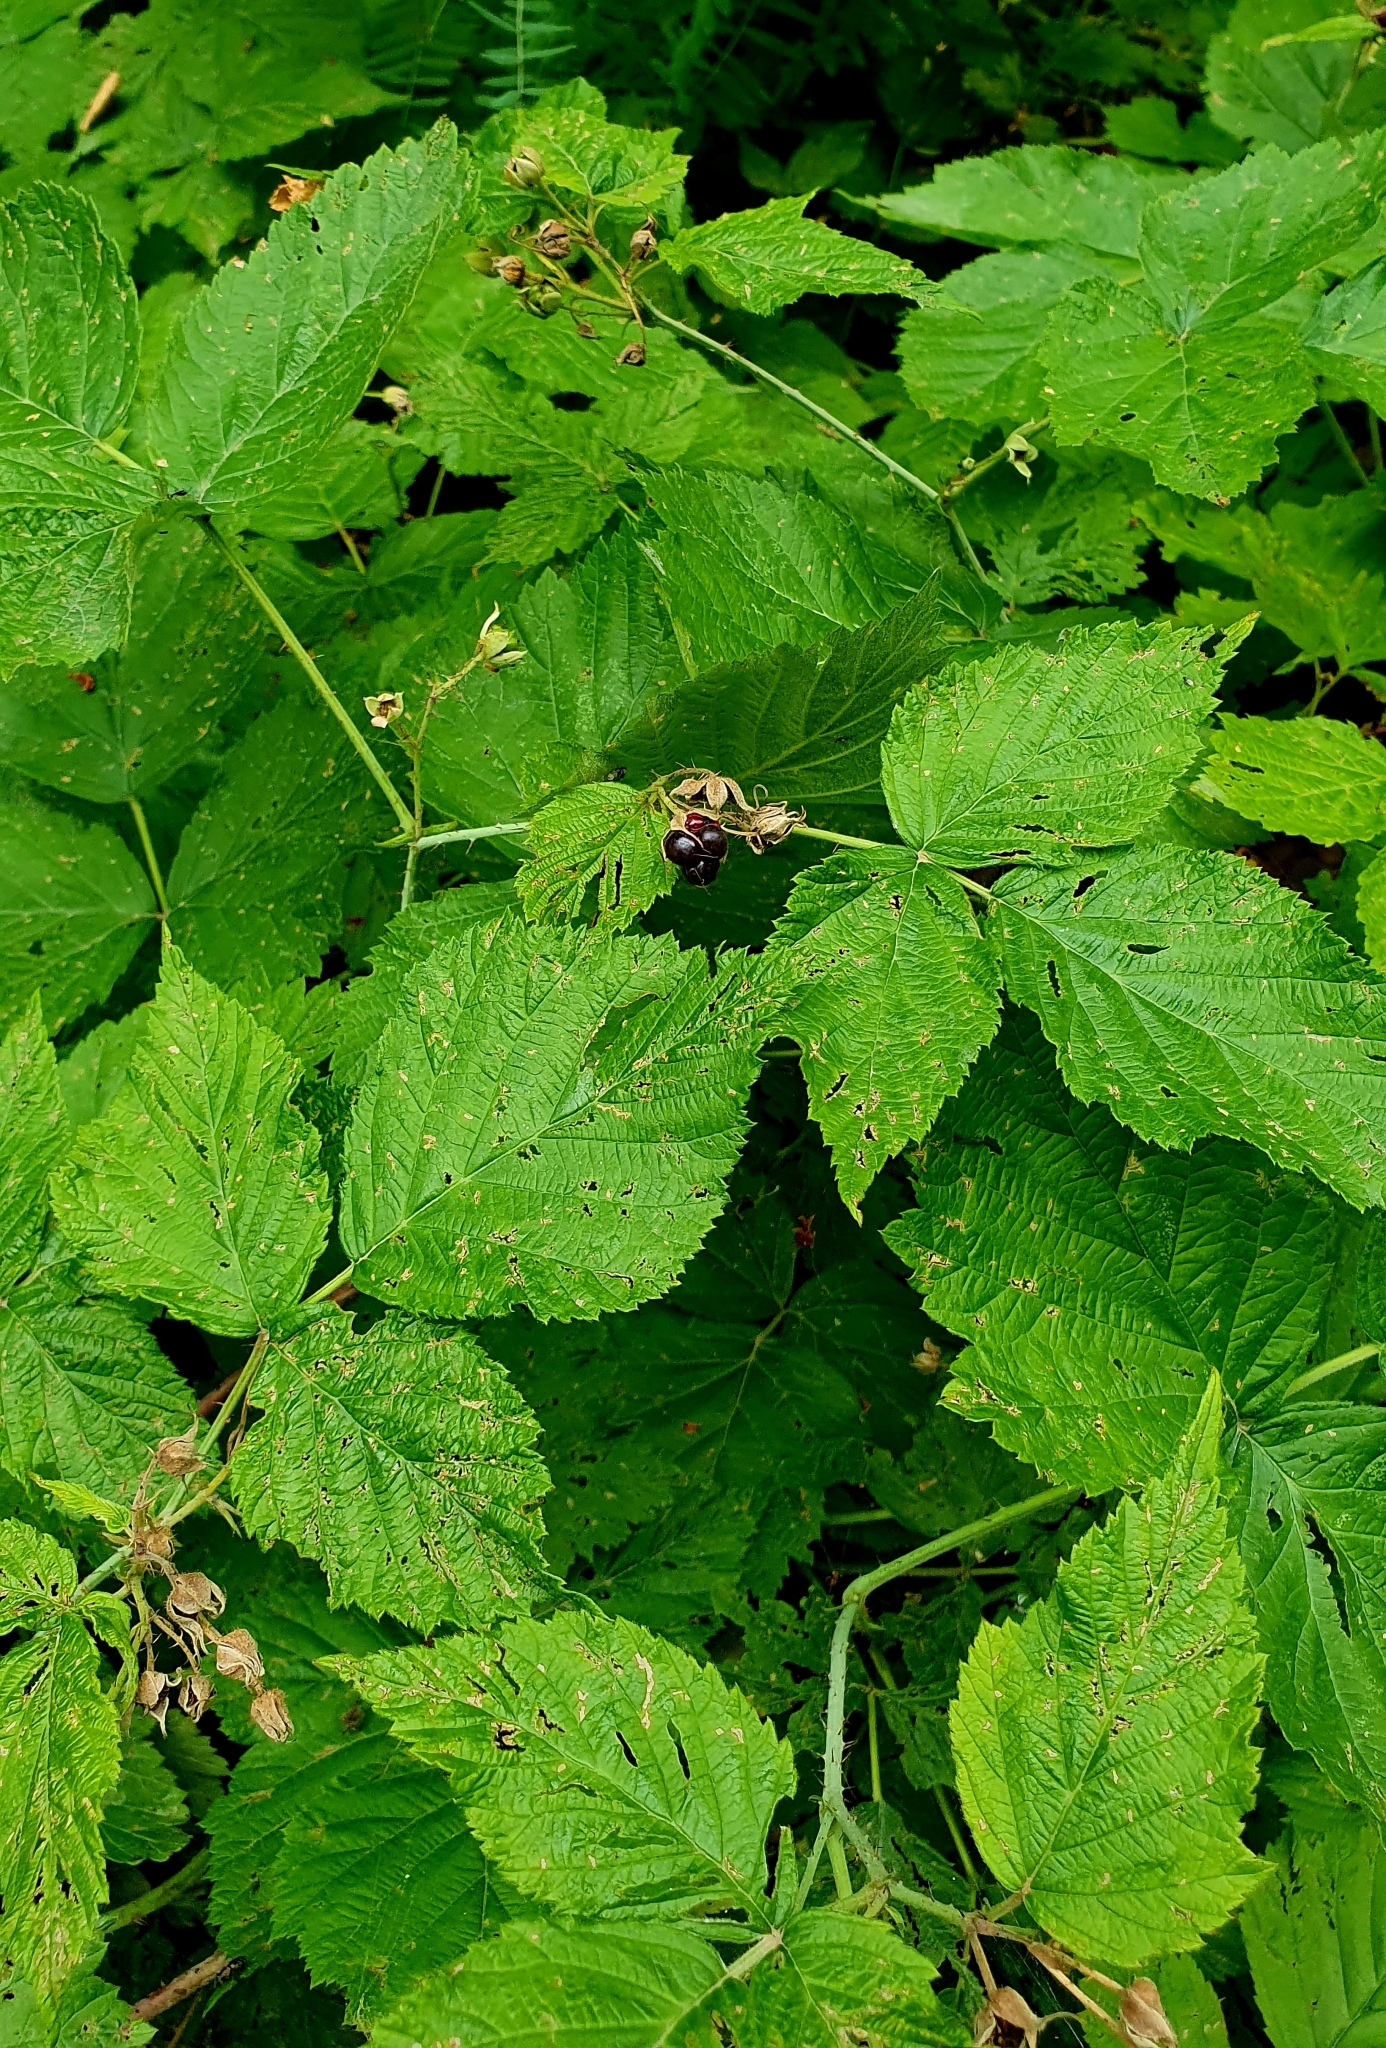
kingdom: Plantae
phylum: Tracheophyta
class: Magnoliopsida
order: Rosales
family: Rosaceae
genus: Rubus
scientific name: Rubus caesius
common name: Dewberry
